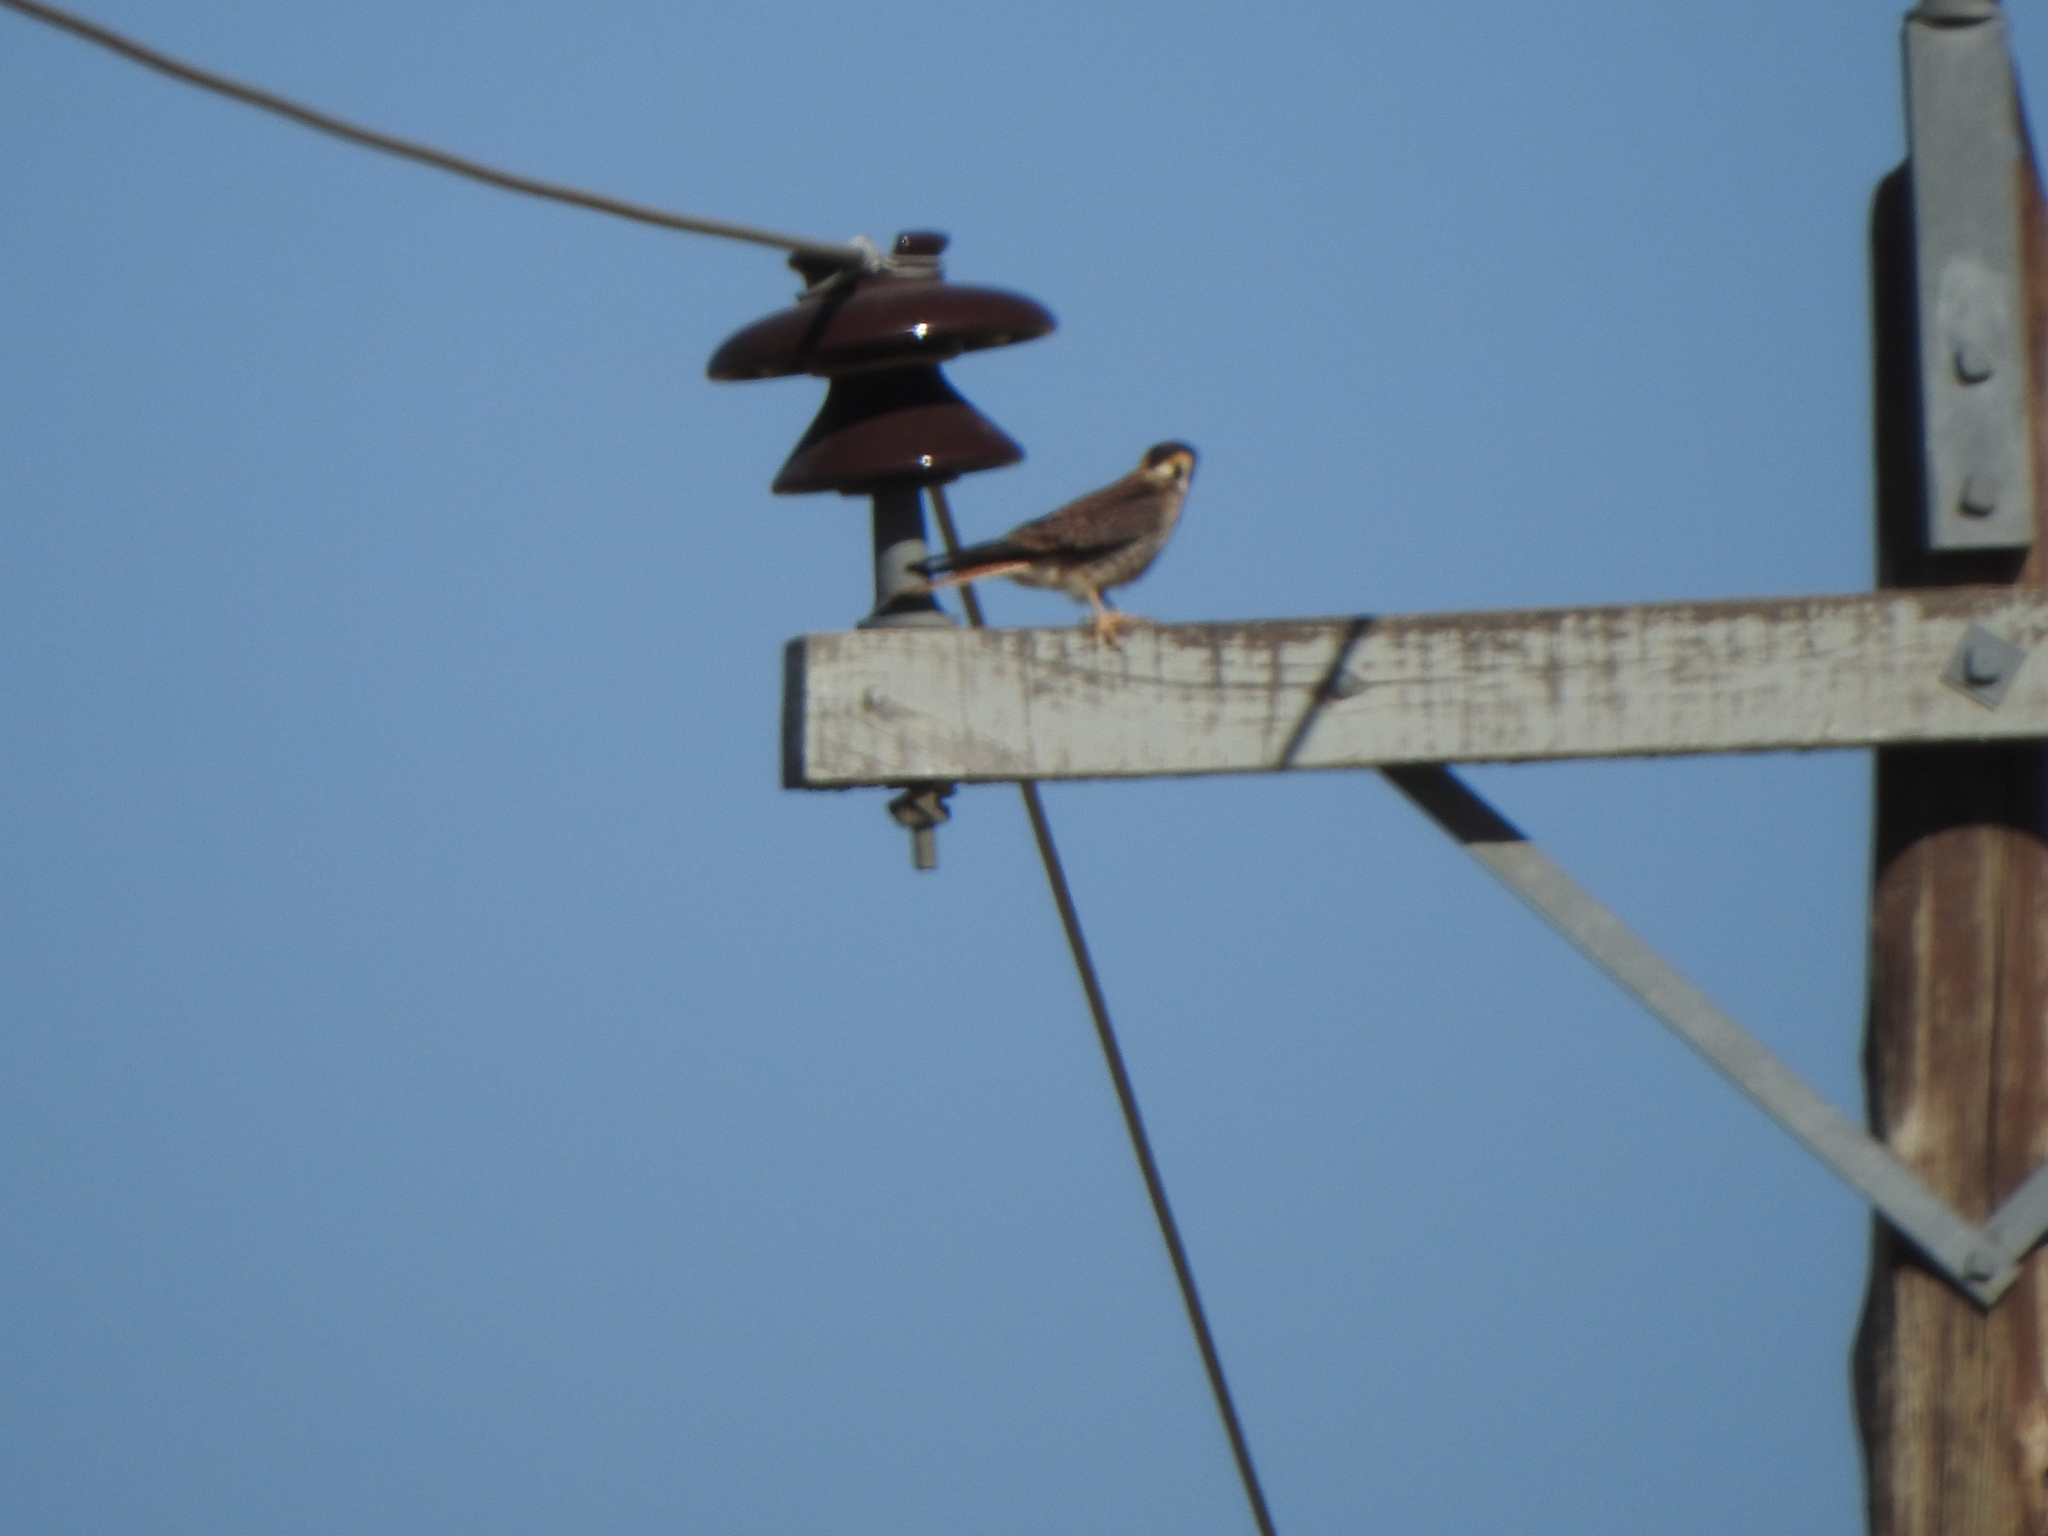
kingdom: Animalia
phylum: Chordata
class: Aves
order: Falconiformes
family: Falconidae
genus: Falco
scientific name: Falco sparverius
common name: American kestrel
